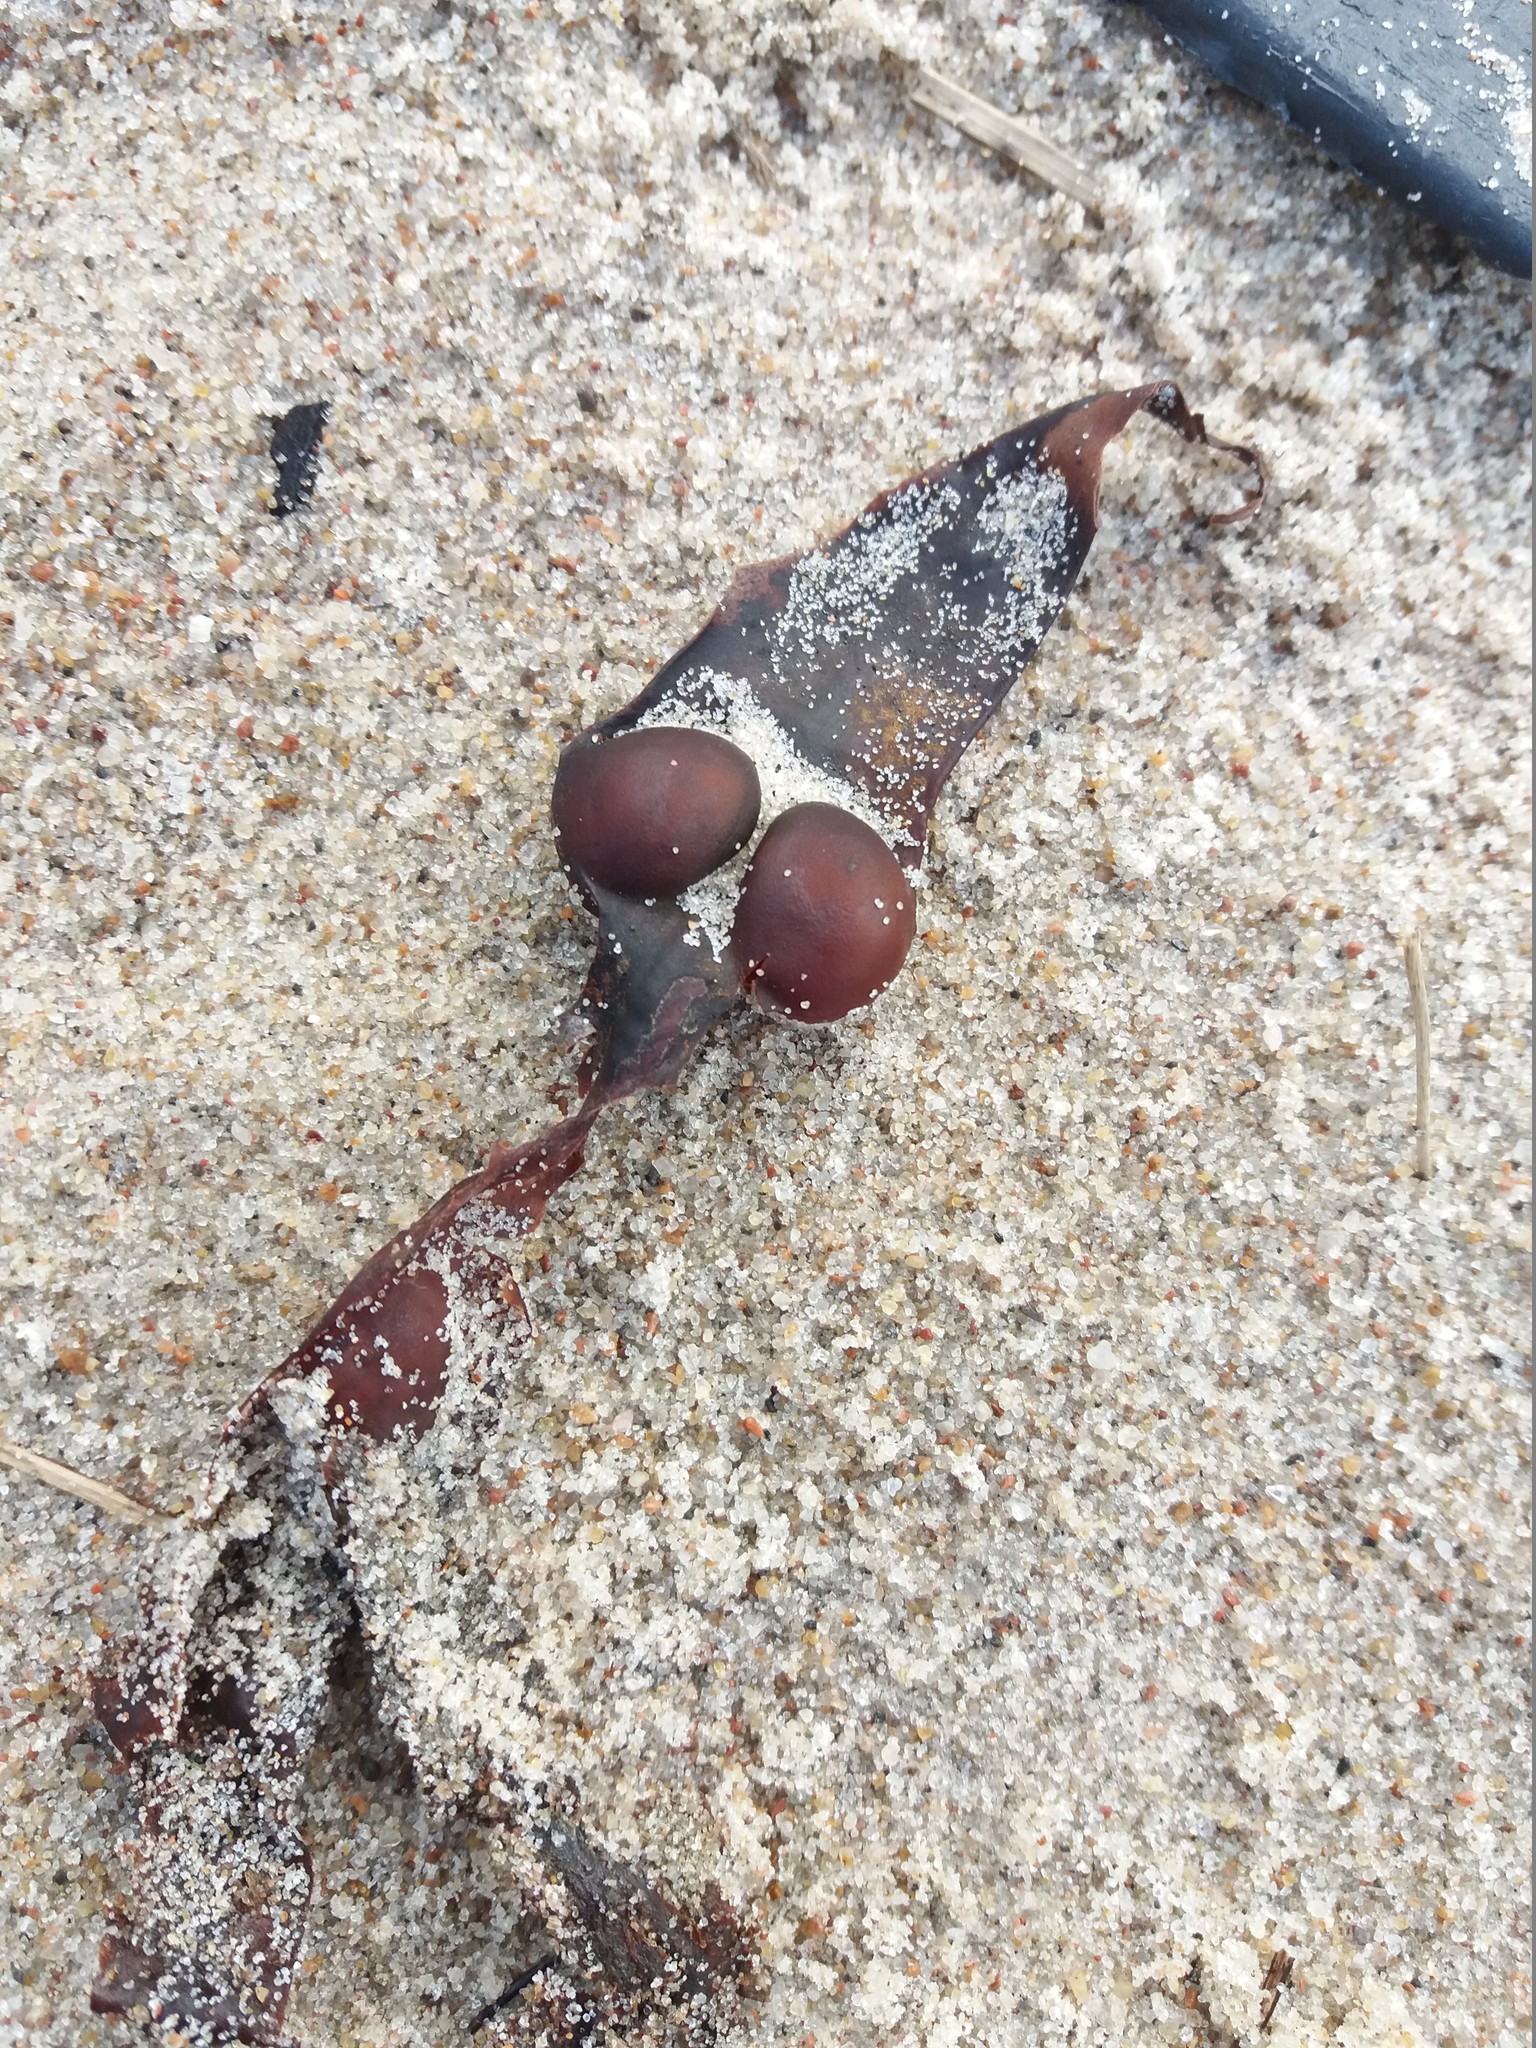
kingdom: Chromista
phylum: Ochrophyta
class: Phaeophyceae
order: Fucales
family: Fucaceae
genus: Fucus
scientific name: Fucus vesiculosus
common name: Bladder wrack
